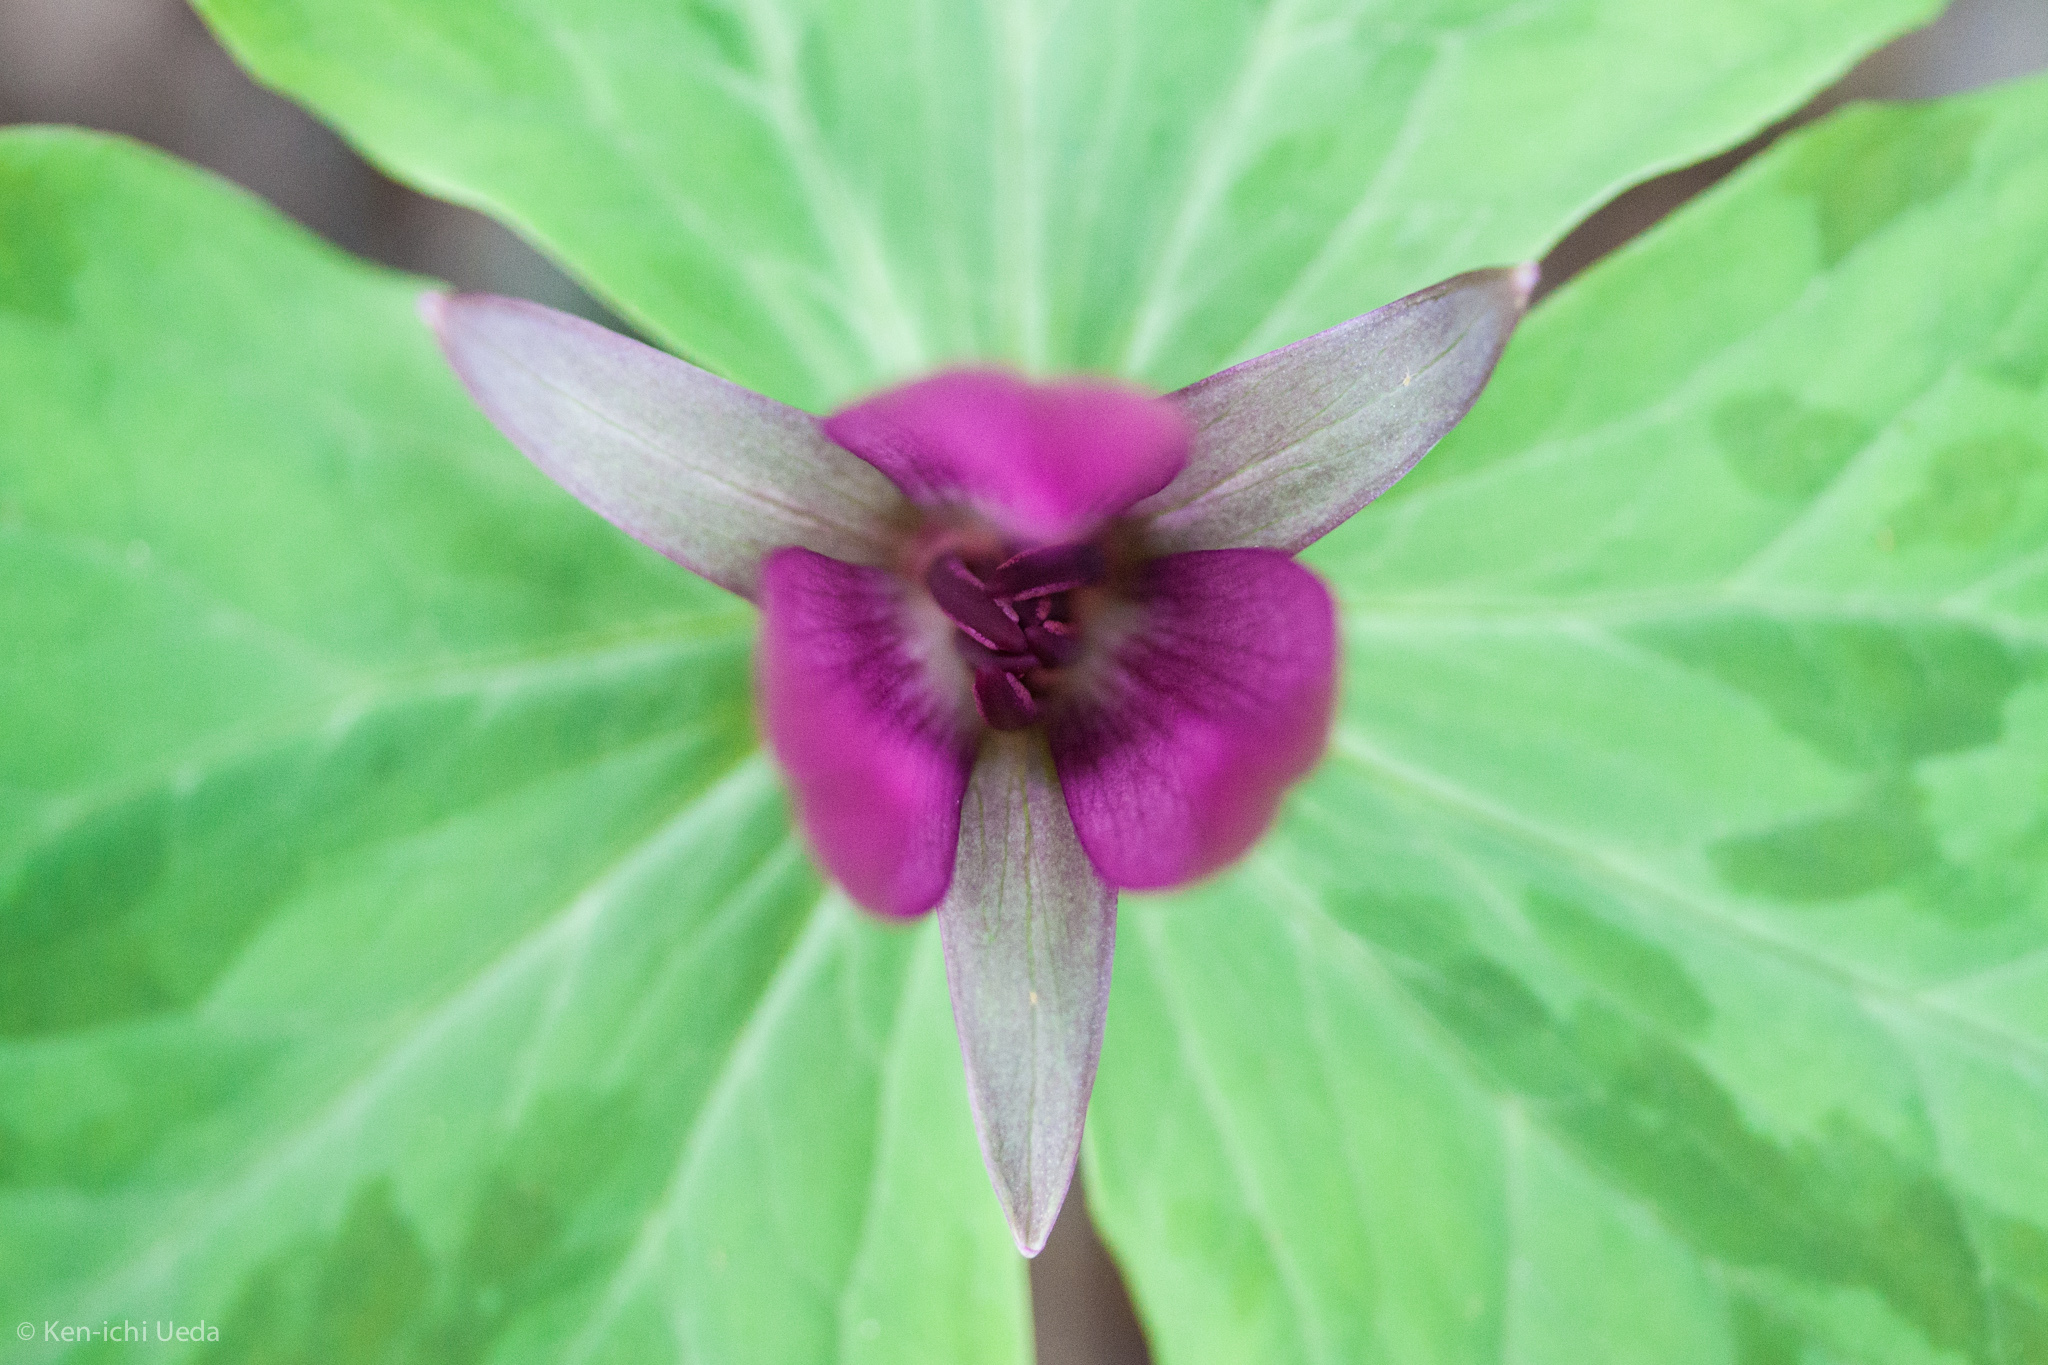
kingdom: Plantae
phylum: Tracheophyta
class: Liliopsida
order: Liliales
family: Melanthiaceae
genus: Trillium
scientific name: Trillium chloropetalum
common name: Giant trillium
